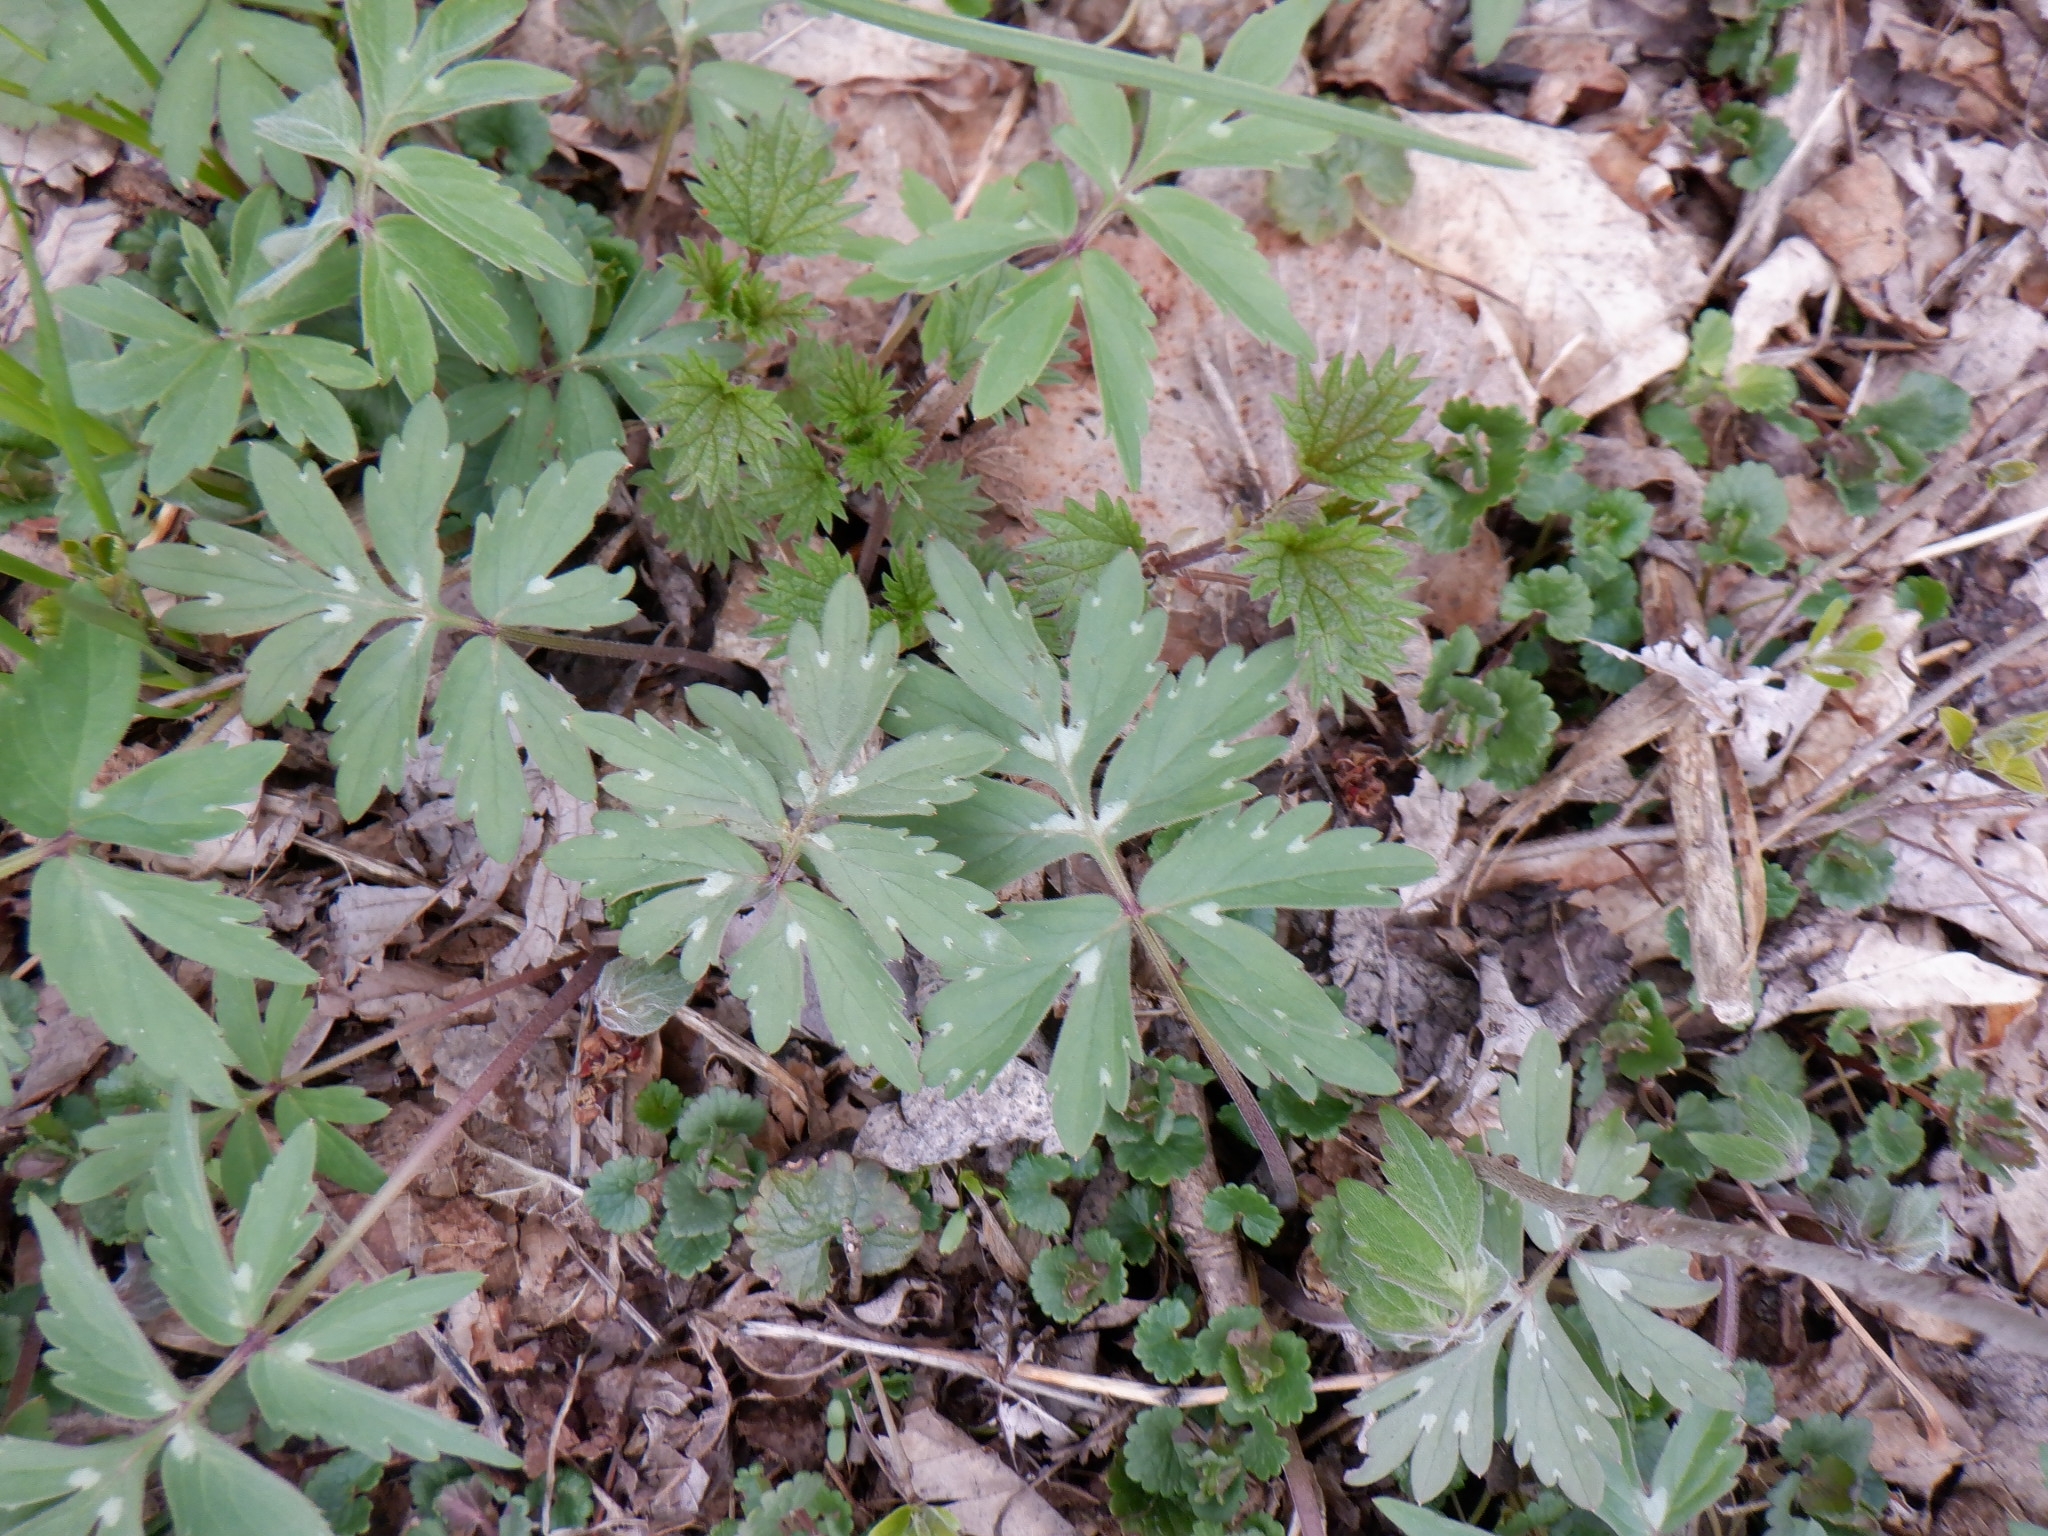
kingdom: Plantae
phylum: Tracheophyta
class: Magnoliopsida
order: Boraginales
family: Hydrophyllaceae
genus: Hydrophyllum
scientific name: Hydrophyllum virginianum
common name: Virginia waterleaf
